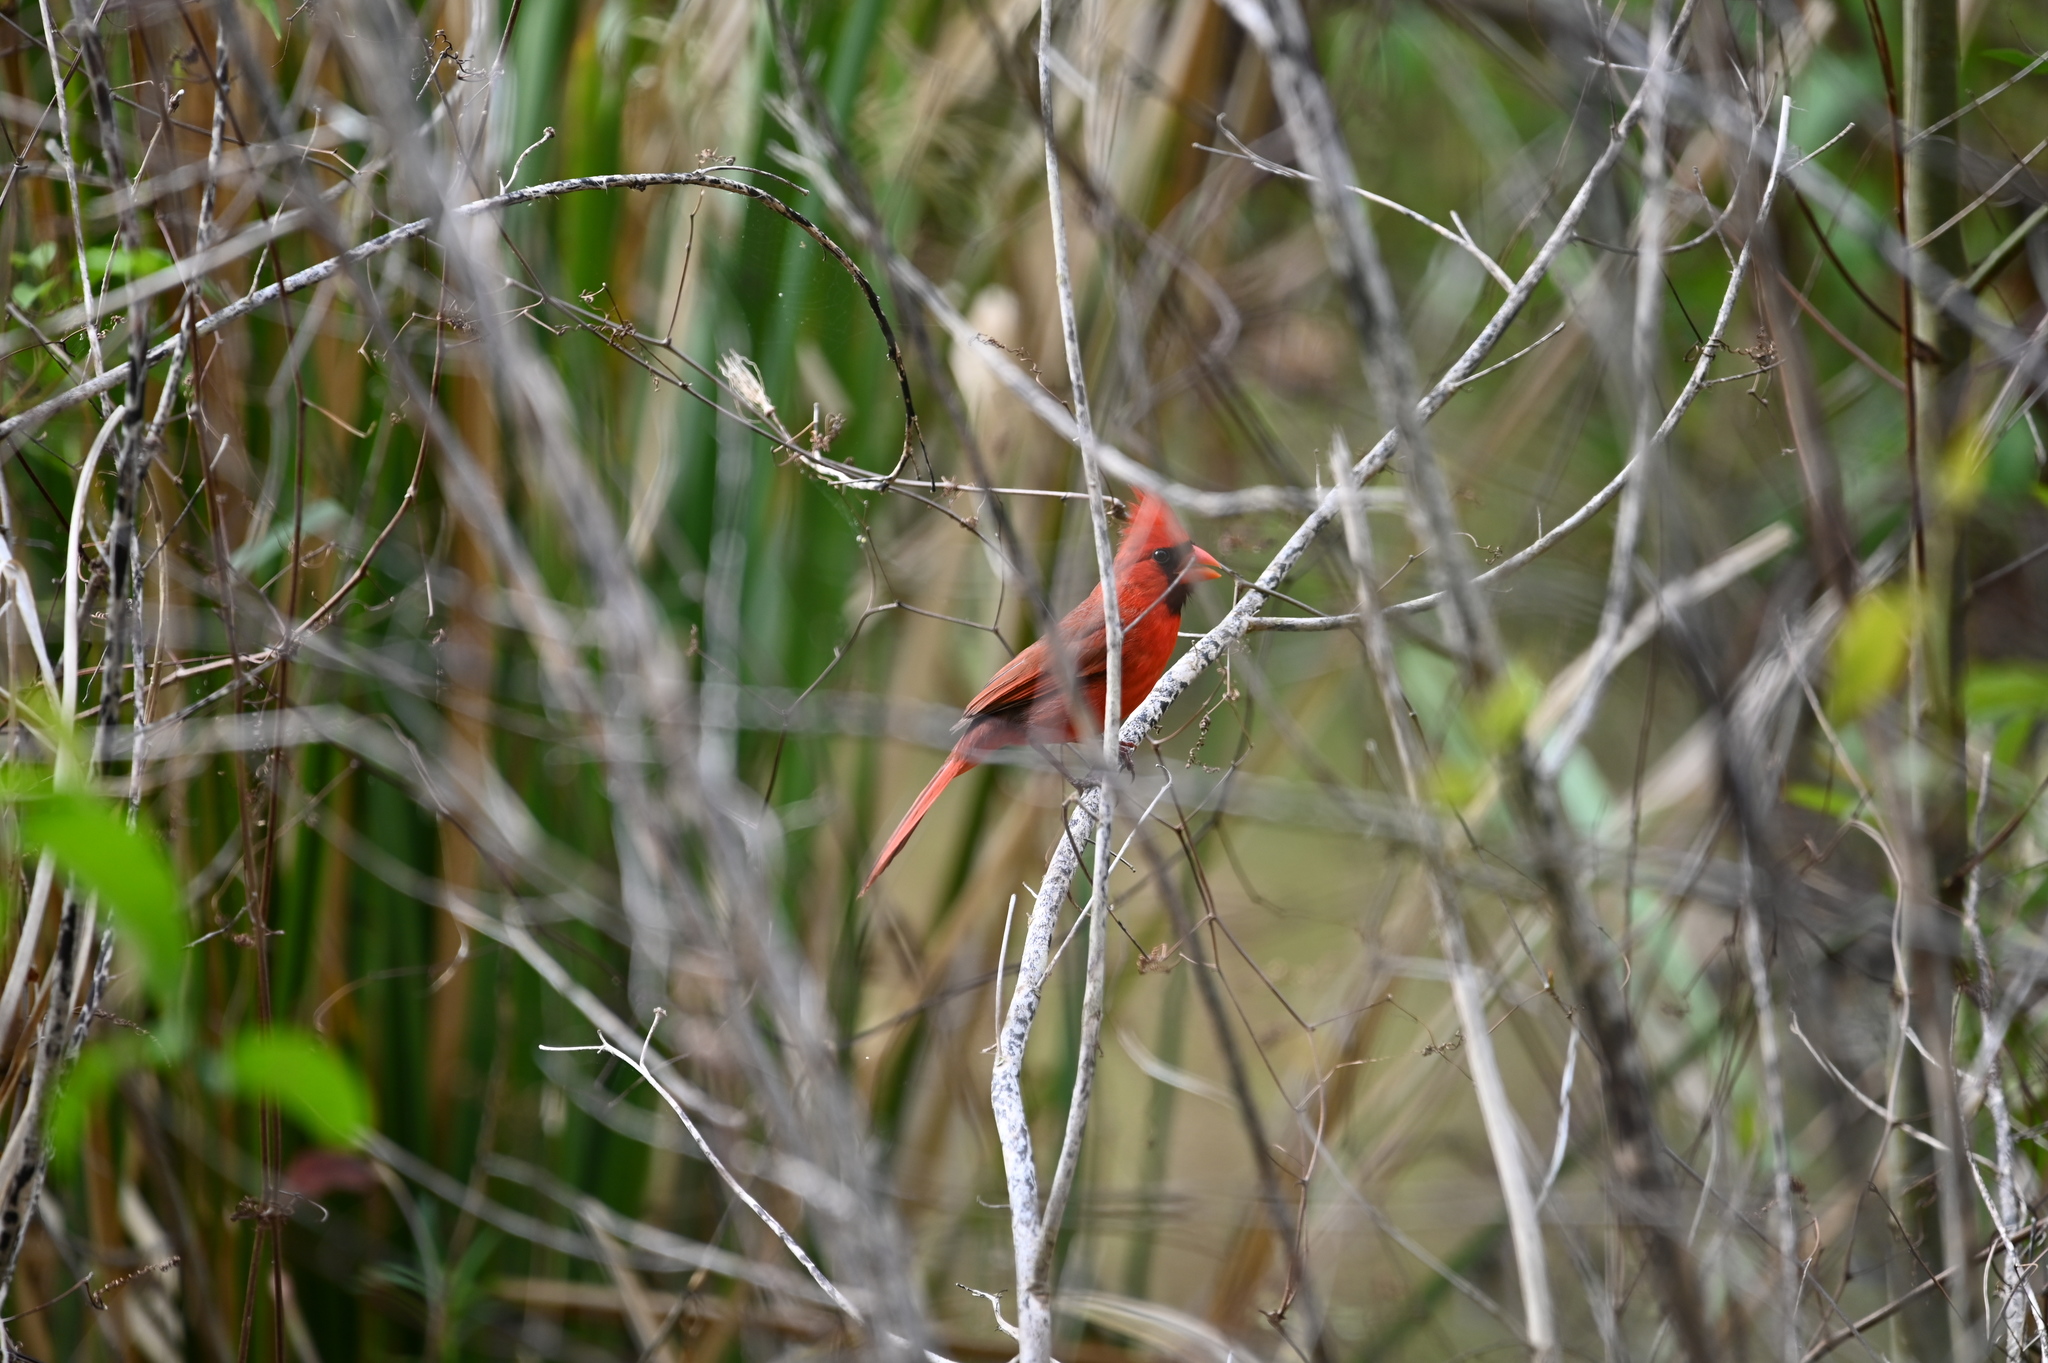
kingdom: Animalia
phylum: Chordata
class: Aves
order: Passeriformes
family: Cardinalidae
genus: Cardinalis
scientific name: Cardinalis cardinalis
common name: Northern cardinal
